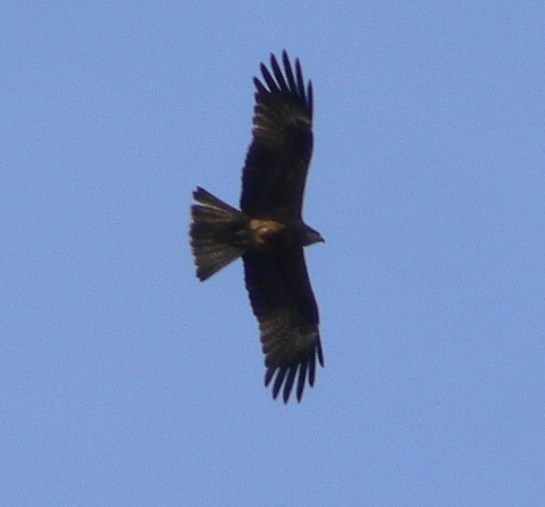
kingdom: Animalia
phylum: Chordata
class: Aves
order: Accipitriformes
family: Accipitridae
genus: Milvus
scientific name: Milvus migrans
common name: Black kite
